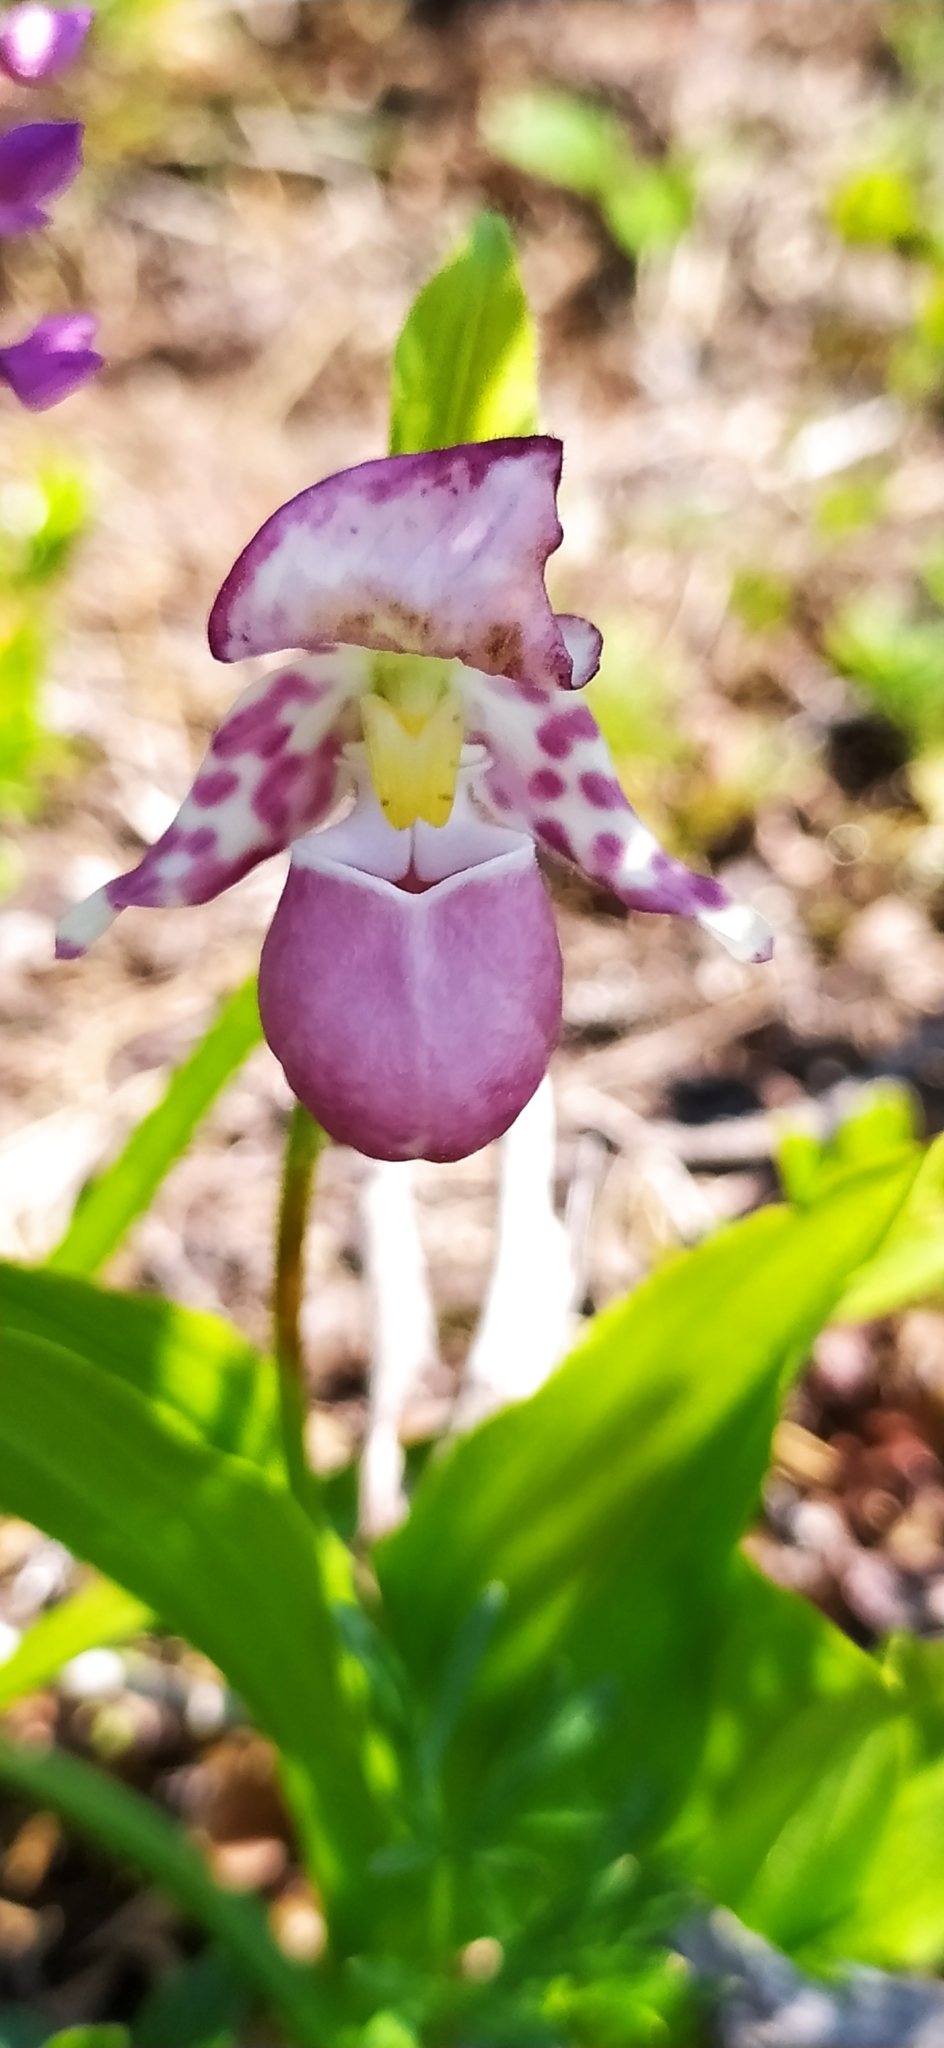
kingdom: Plantae
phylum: Tracheophyta
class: Liliopsida
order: Asparagales
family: Orchidaceae
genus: Cypripedium
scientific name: Cypripedium guttatum
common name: Pink lady slipper
